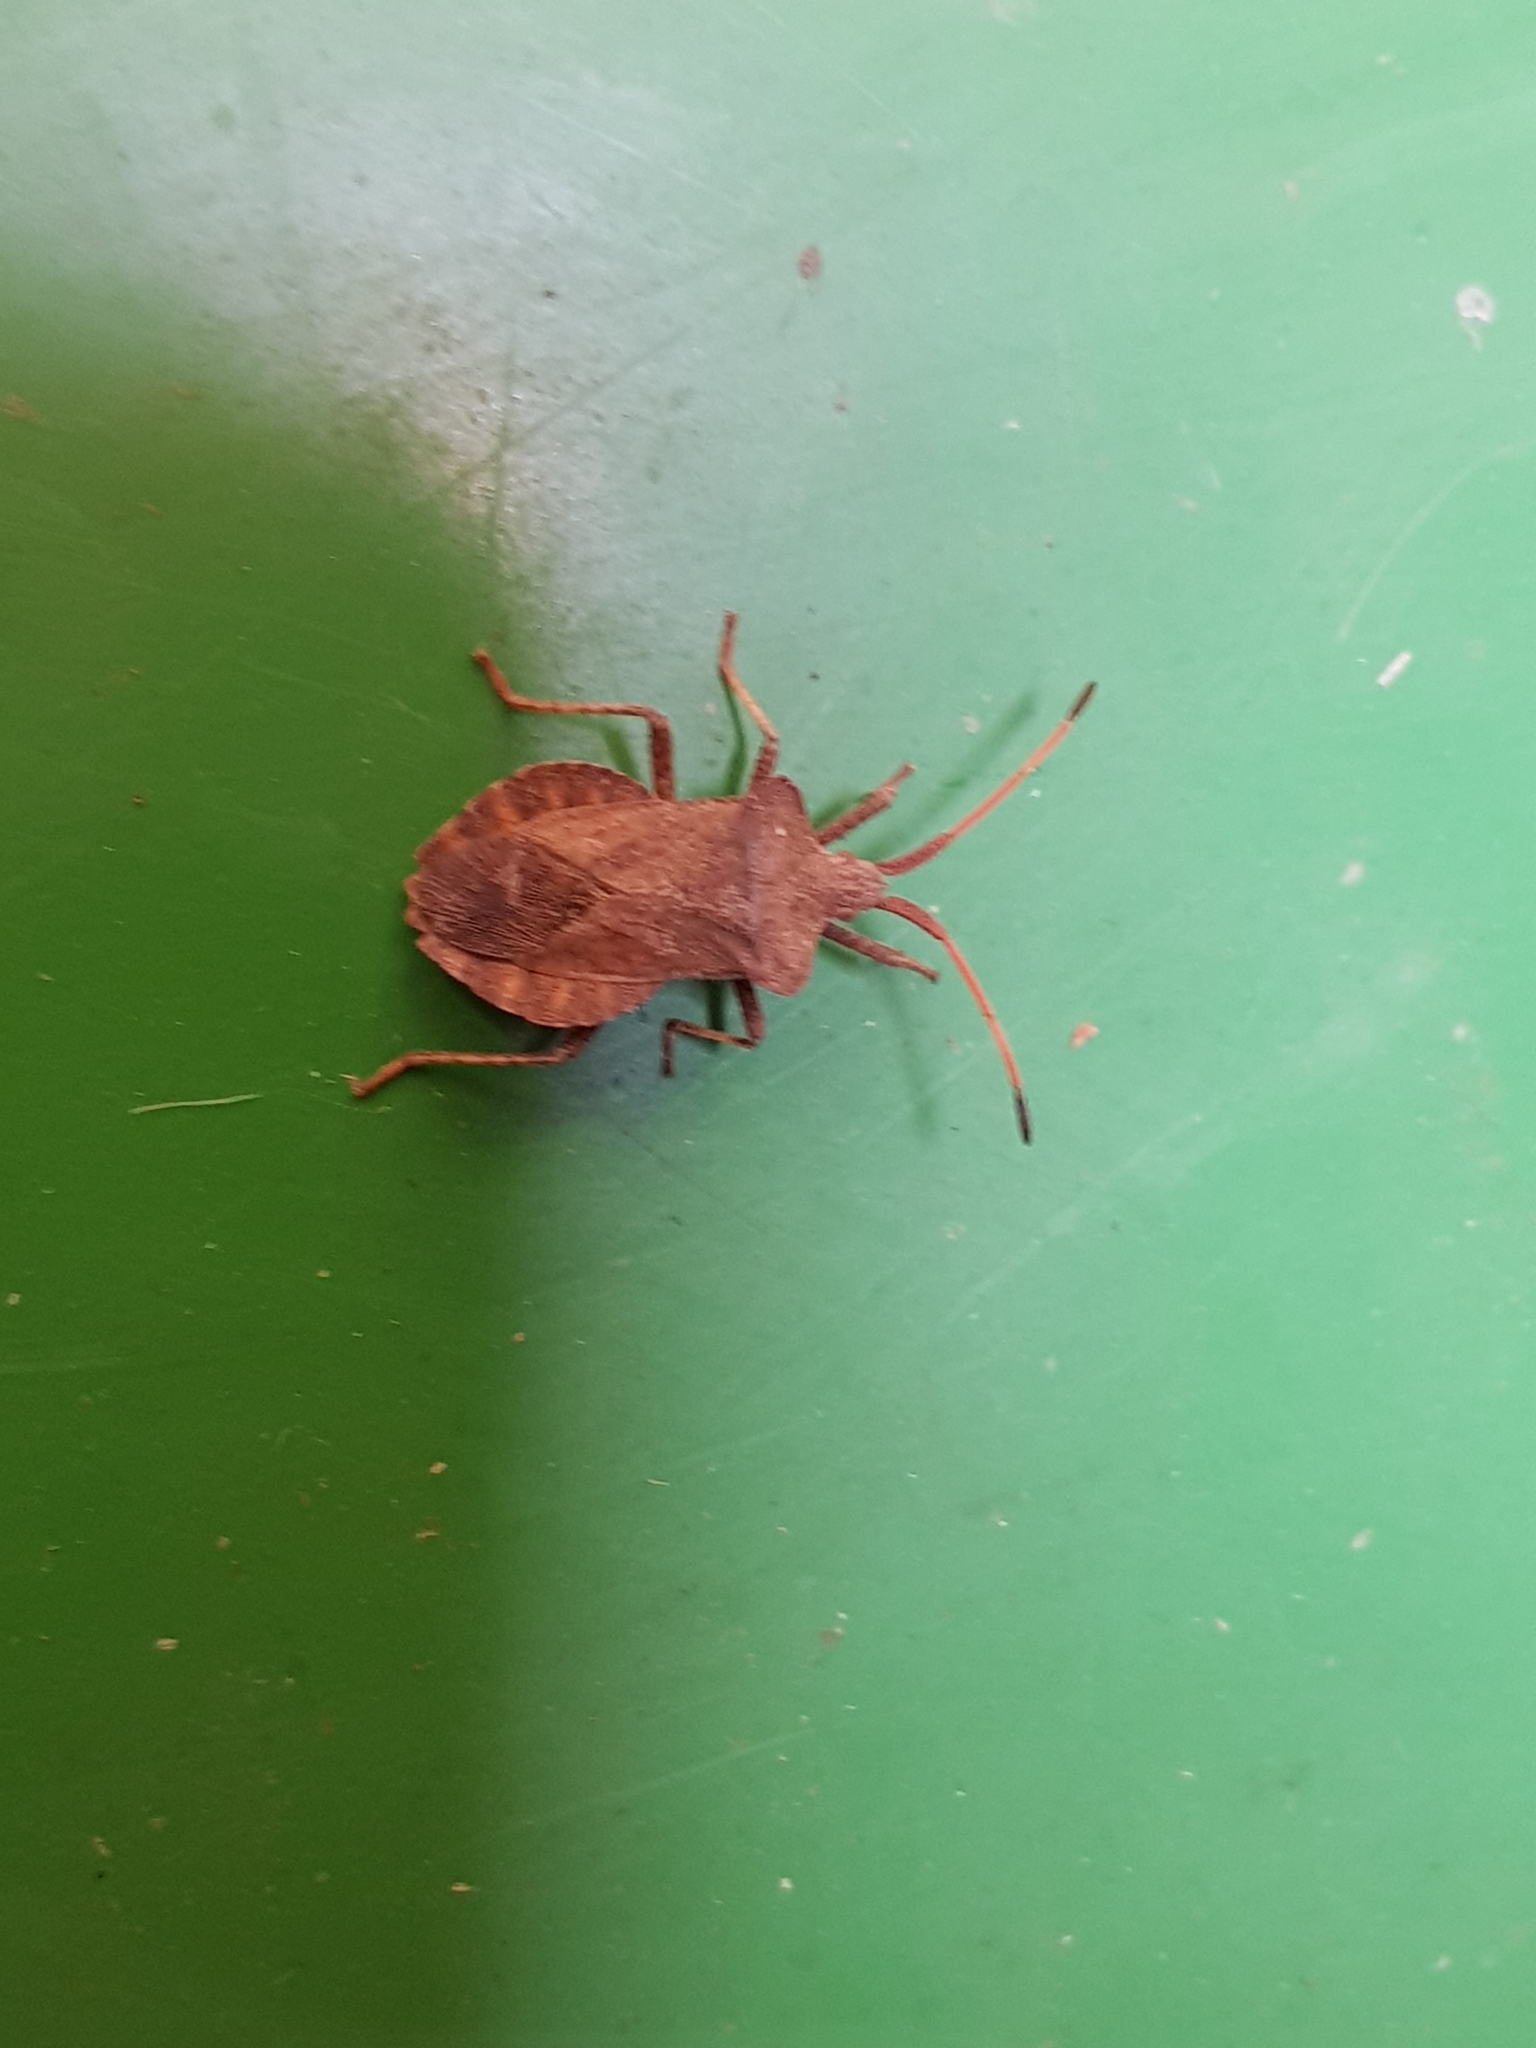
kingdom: Animalia
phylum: Arthropoda
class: Insecta
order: Hemiptera
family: Coreidae
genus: Coreus
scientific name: Coreus marginatus
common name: Dock bug
